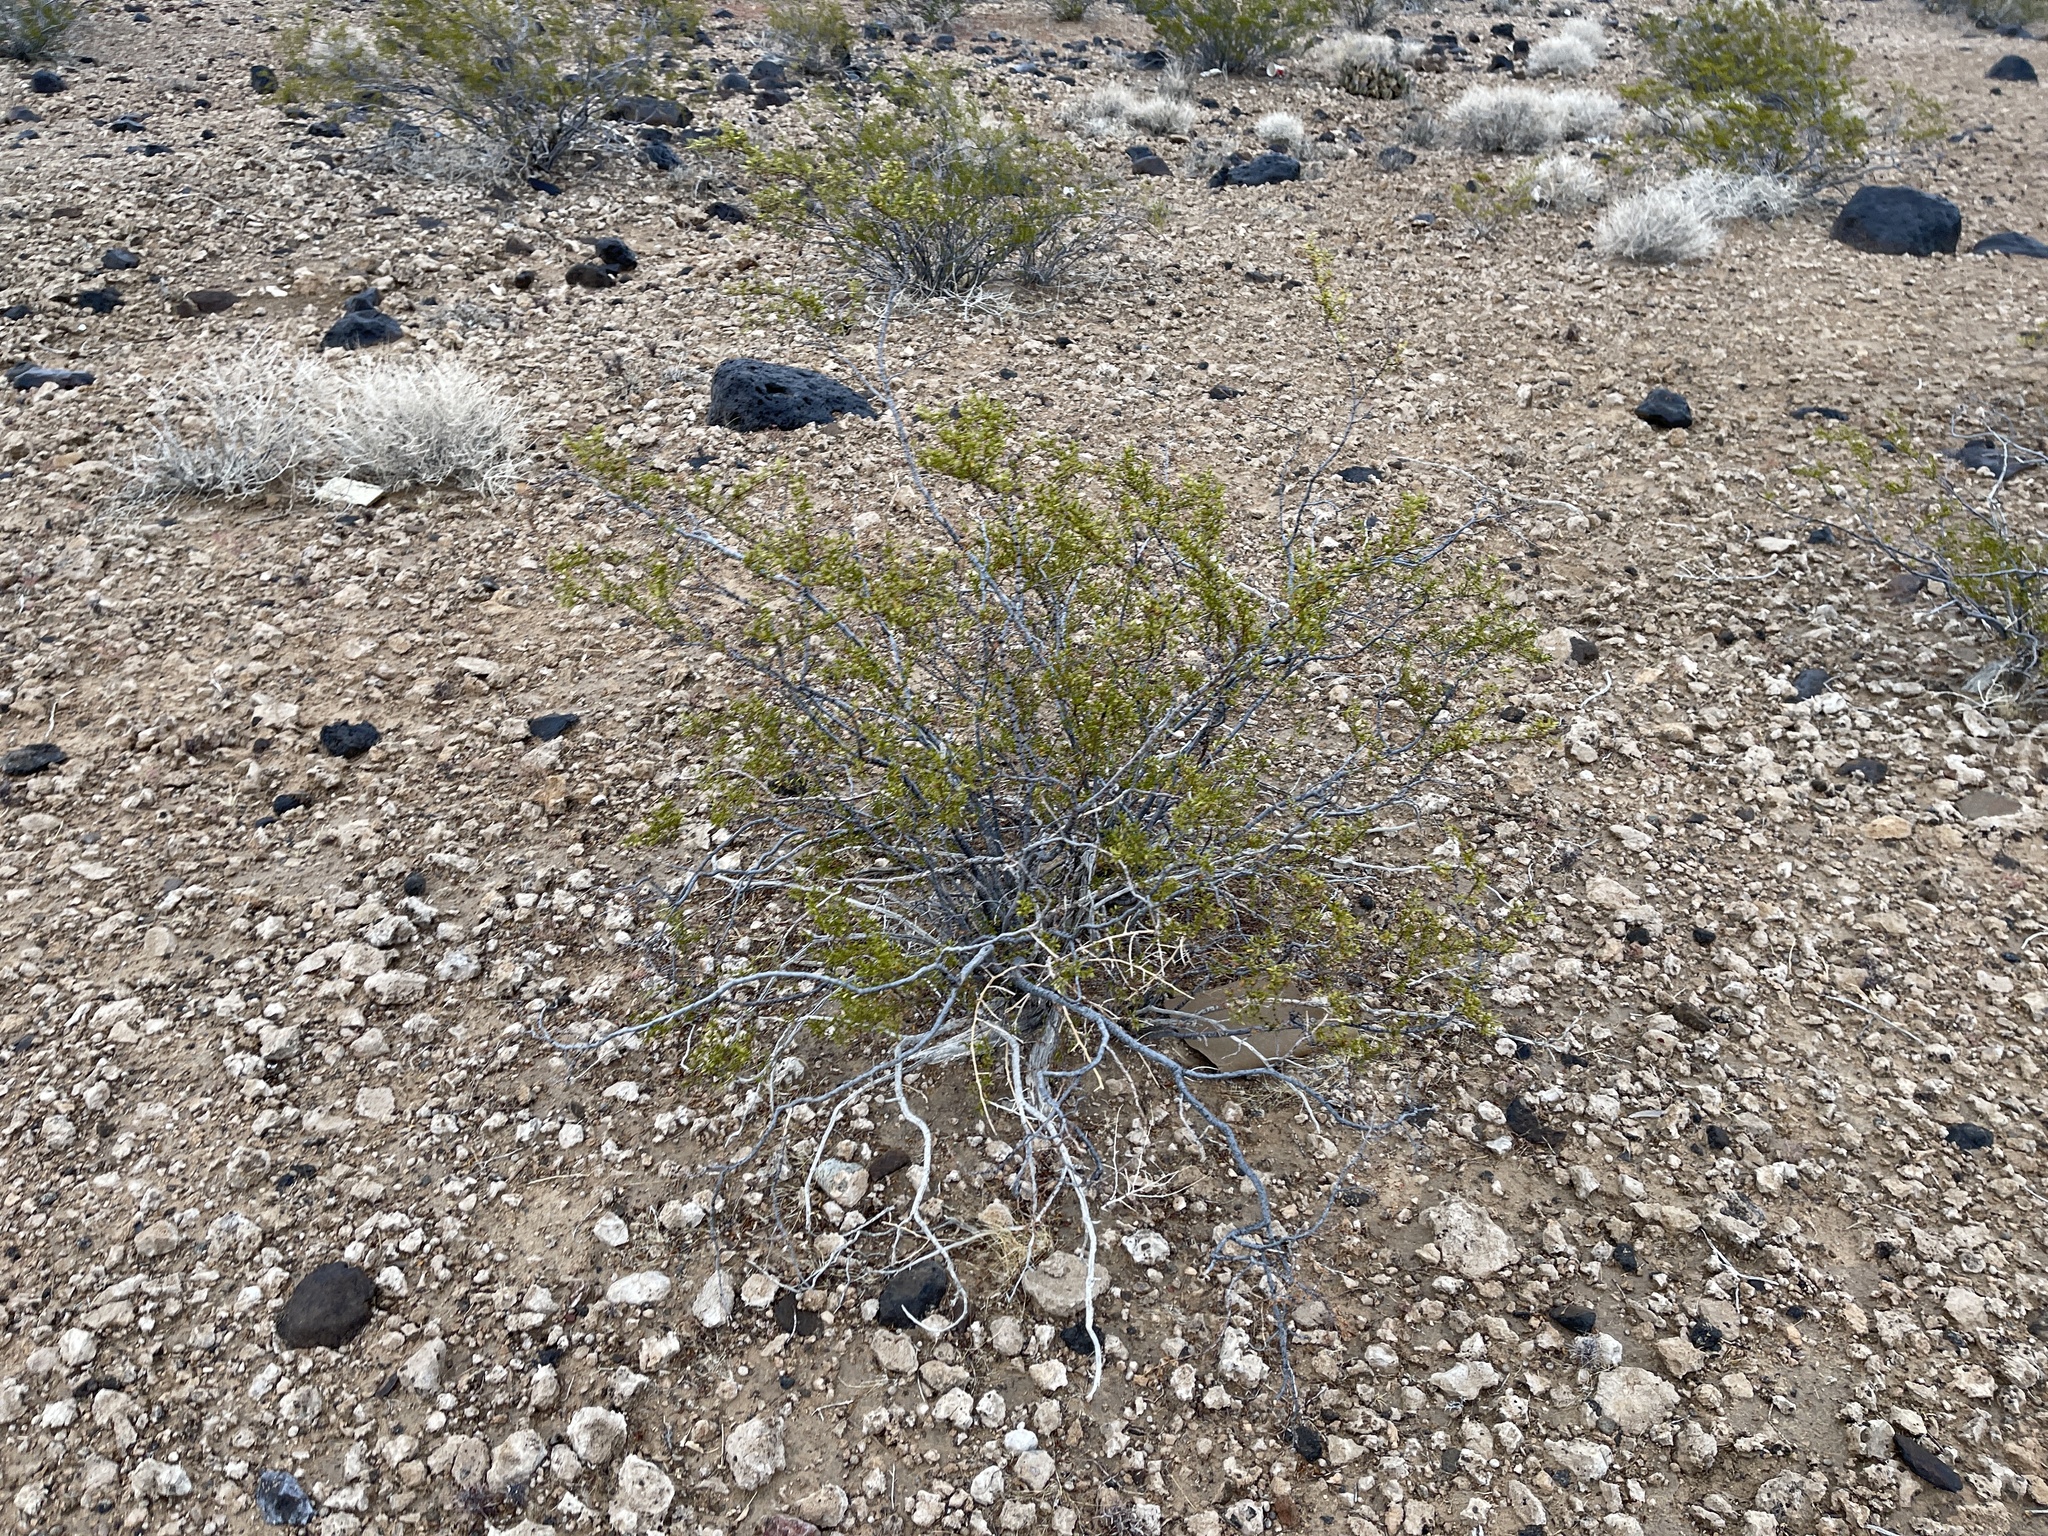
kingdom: Plantae
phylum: Tracheophyta
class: Magnoliopsida
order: Zygophyllales
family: Zygophyllaceae
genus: Larrea
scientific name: Larrea tridentata
